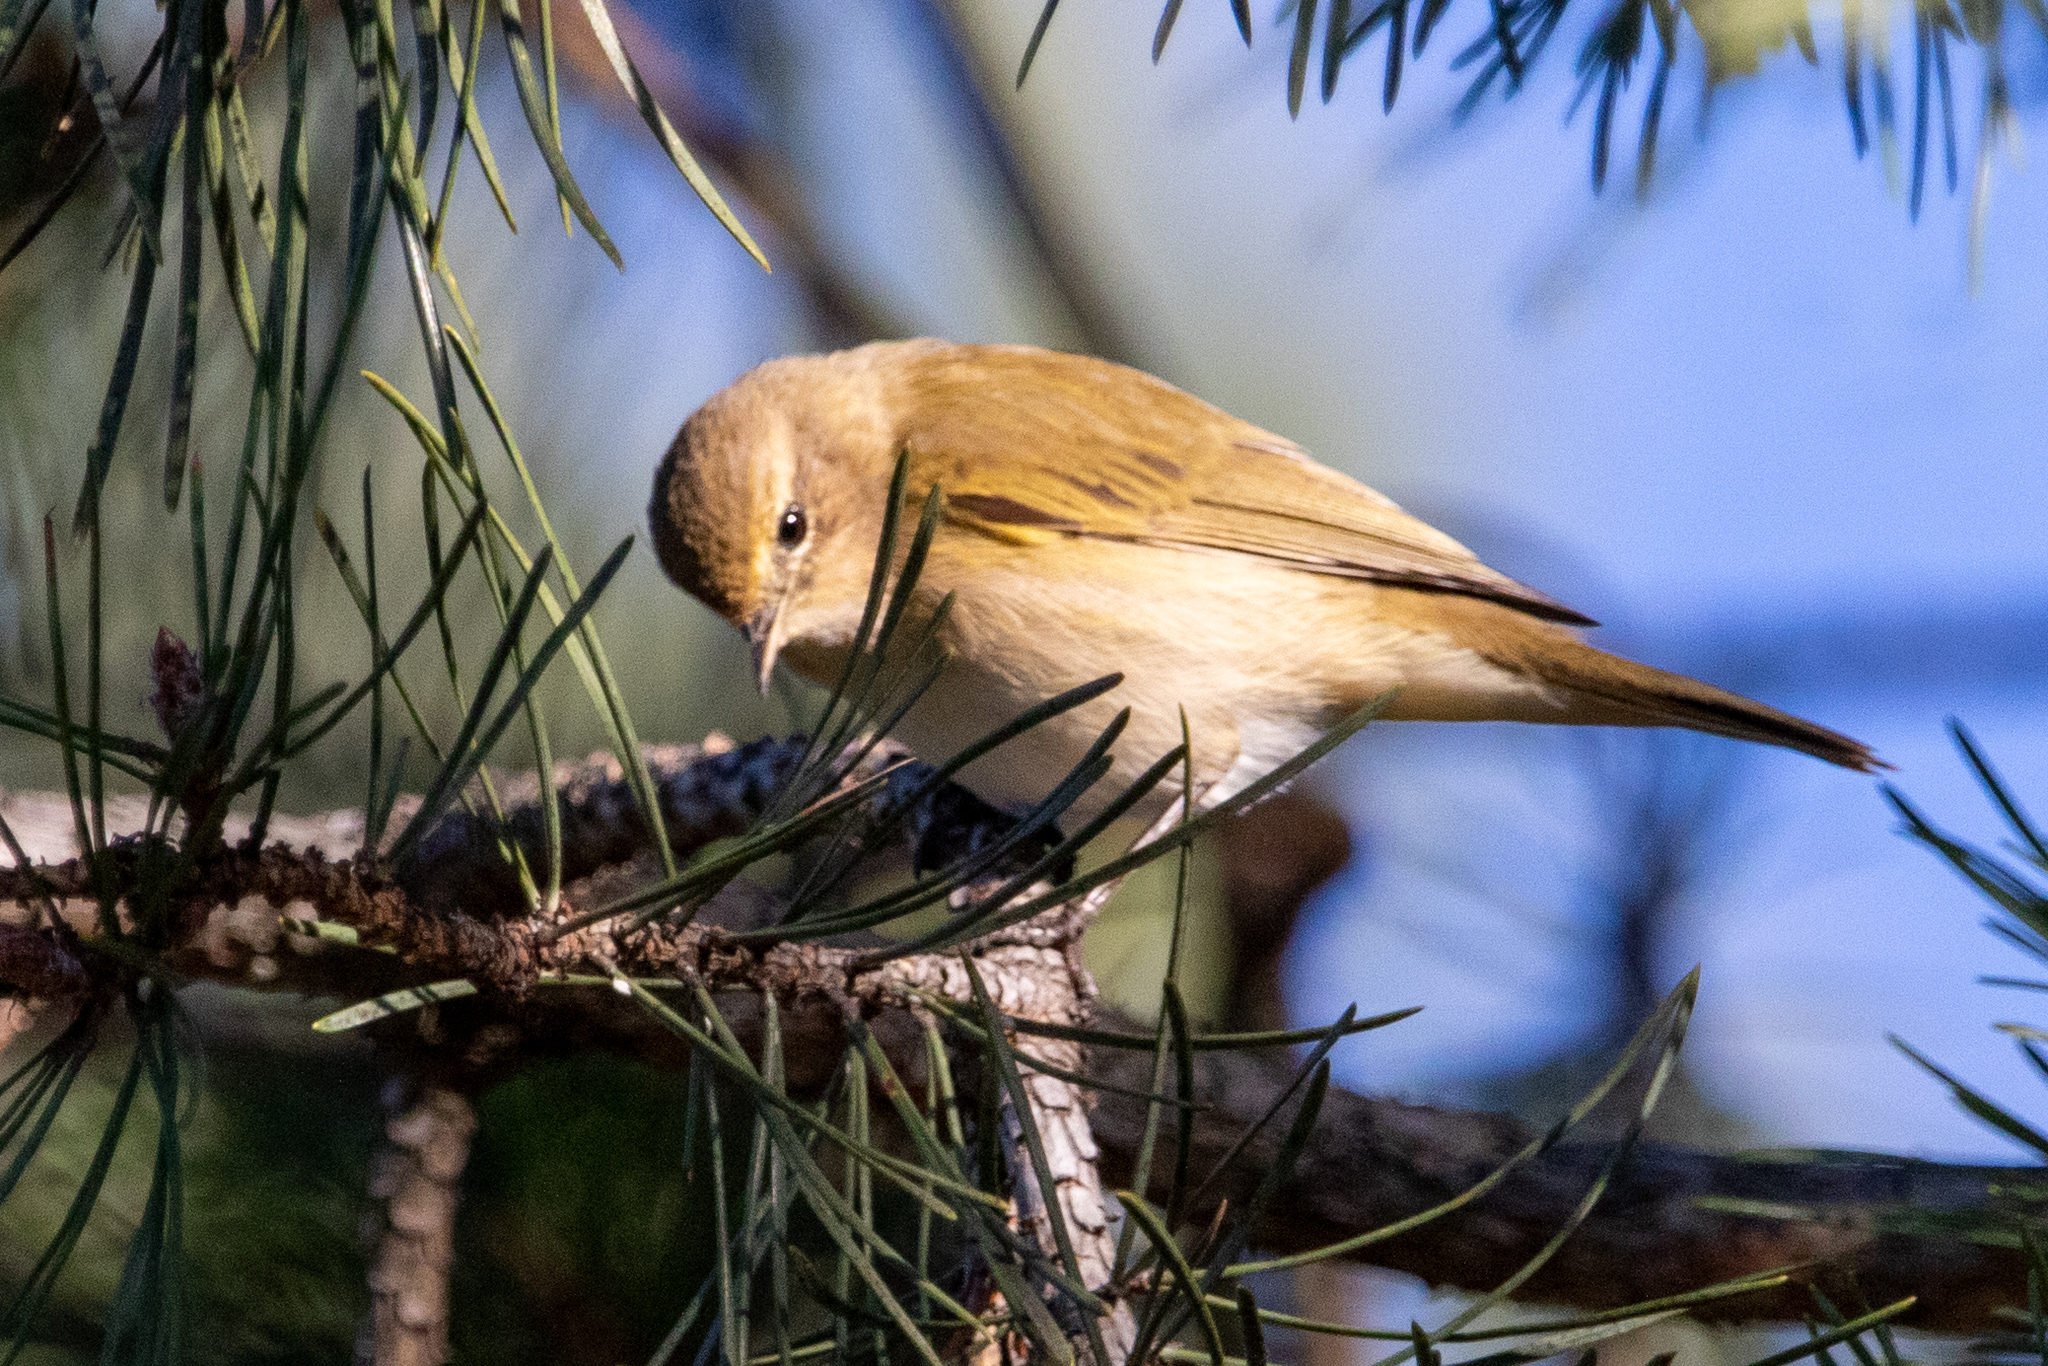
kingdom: Animalia
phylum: Chordata
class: Aves
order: Passeriformes
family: Phylloscopidae
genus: Phylloscopus
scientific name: Phylloscopus collybita
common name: Common chiffchaff
